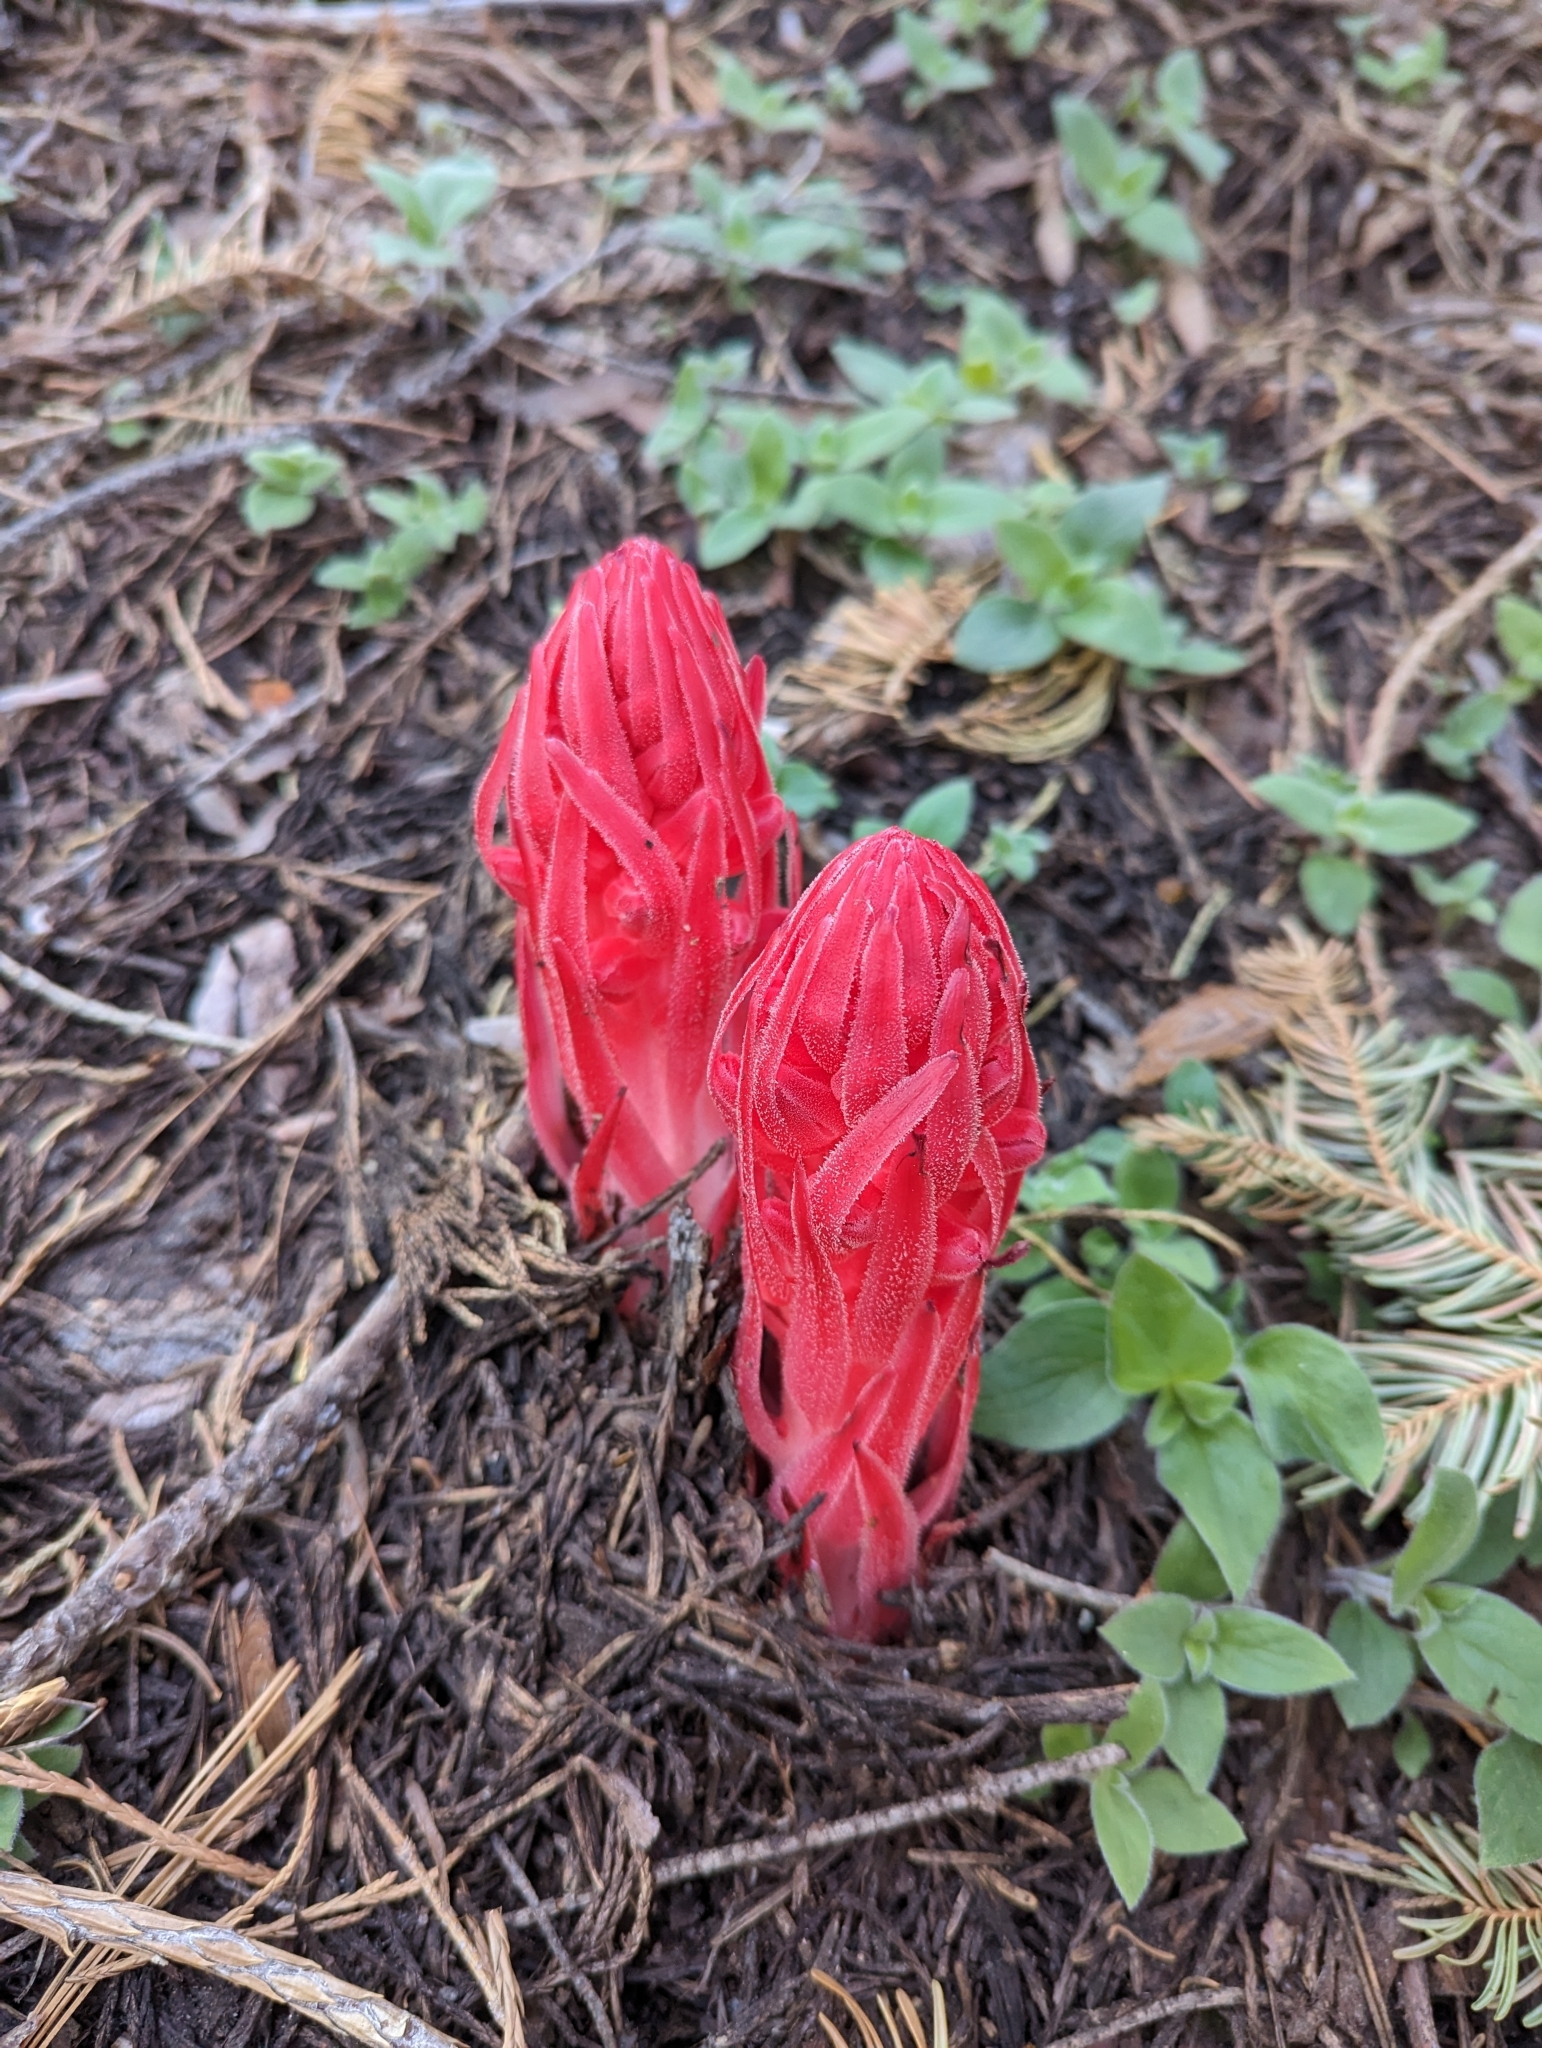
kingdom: Plantae
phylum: Tracheophyta
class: Magnoliopsida
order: Ericales
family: Ericaceae
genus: Sarcodes
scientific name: Sarcodes sanguinea
